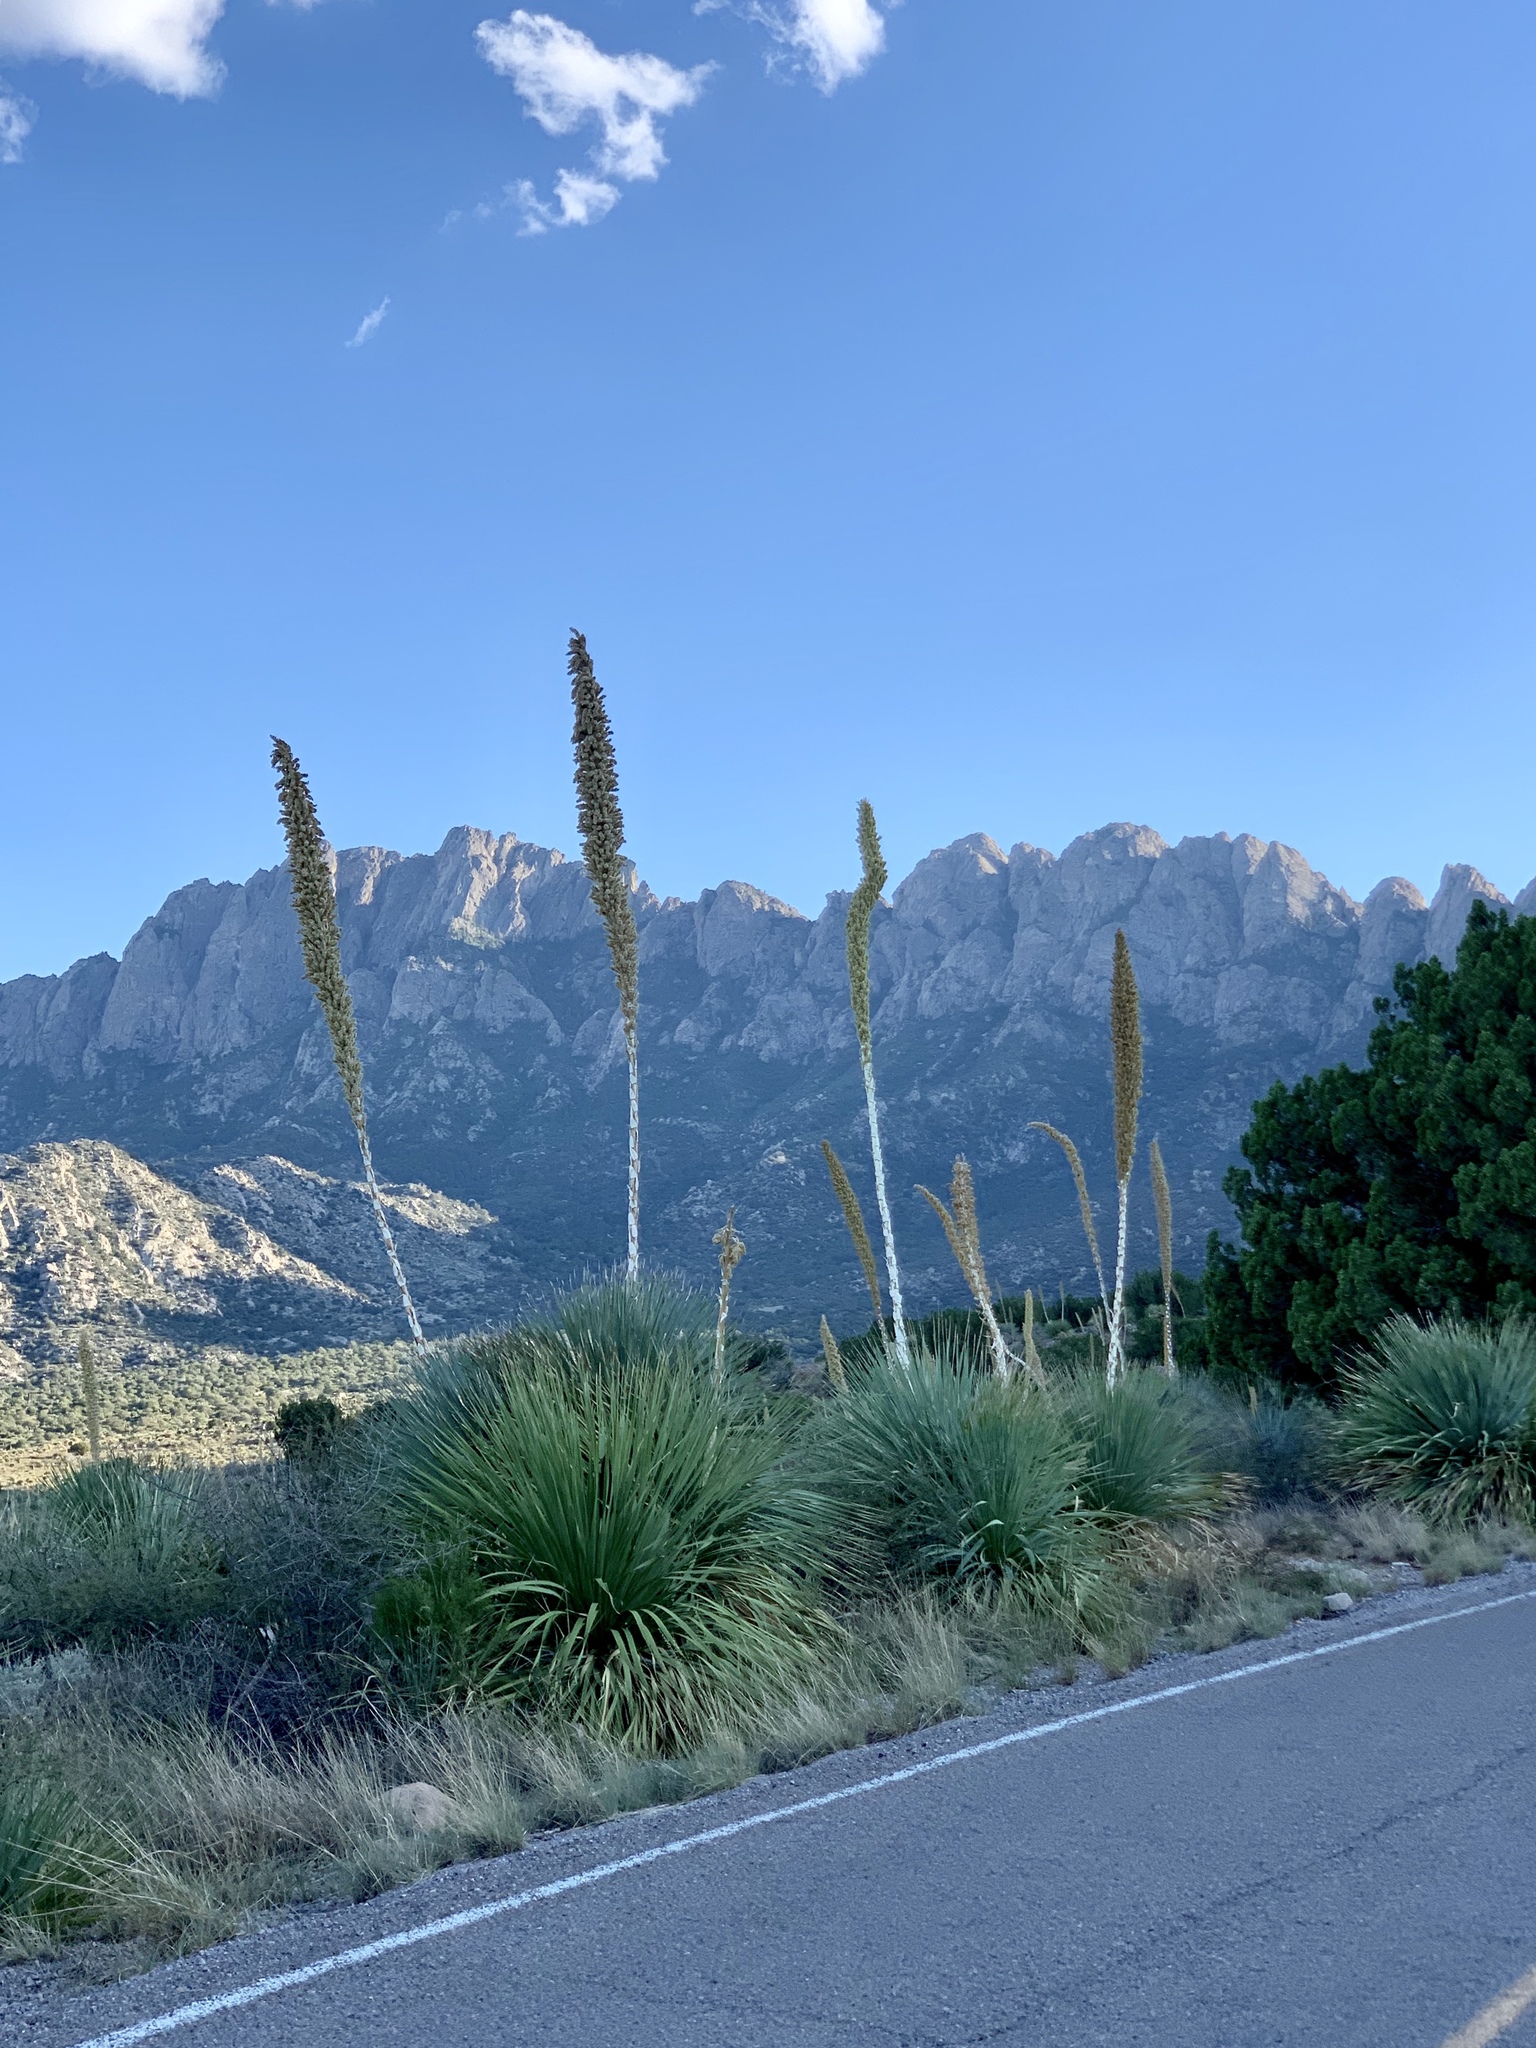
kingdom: Plantae
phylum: Tracheophyta
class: Liliopsida
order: Asparagales
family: Asparagaceae
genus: Dasylirion
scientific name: Dasylirion wheeleri
